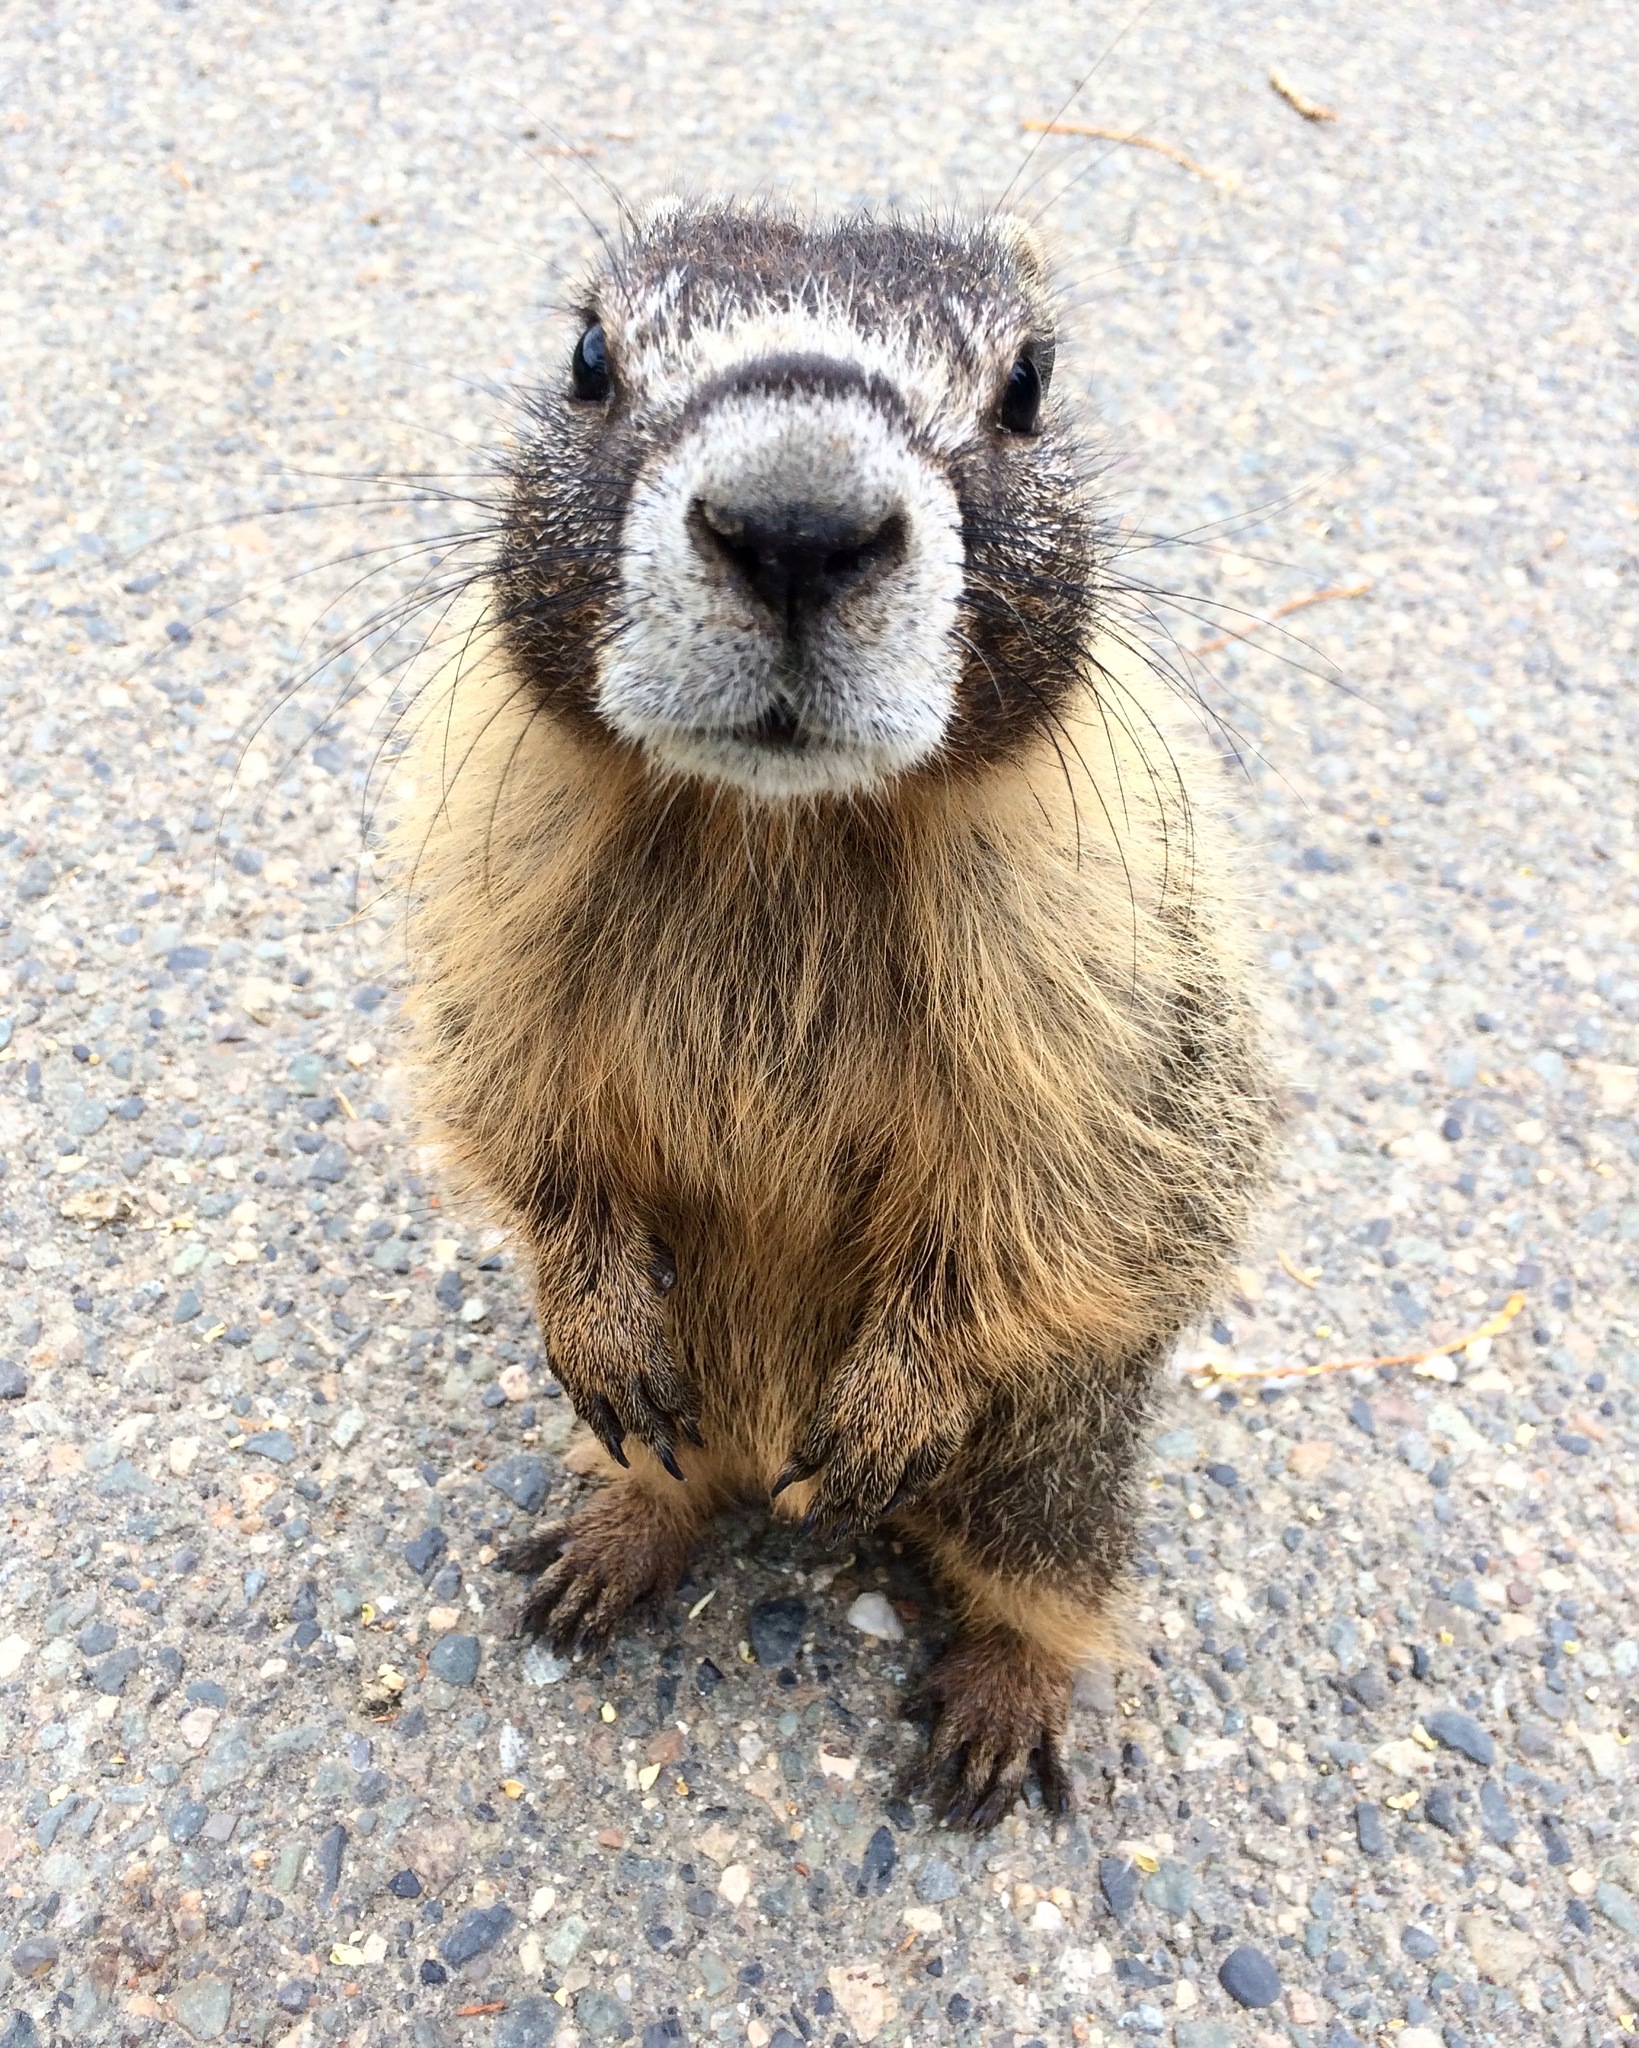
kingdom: Animalia
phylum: Chordata
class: Mammalia
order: Rodentia
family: Sciuridae
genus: Marmota
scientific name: Marmota flaviventris
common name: Yellow-bellied marmot
